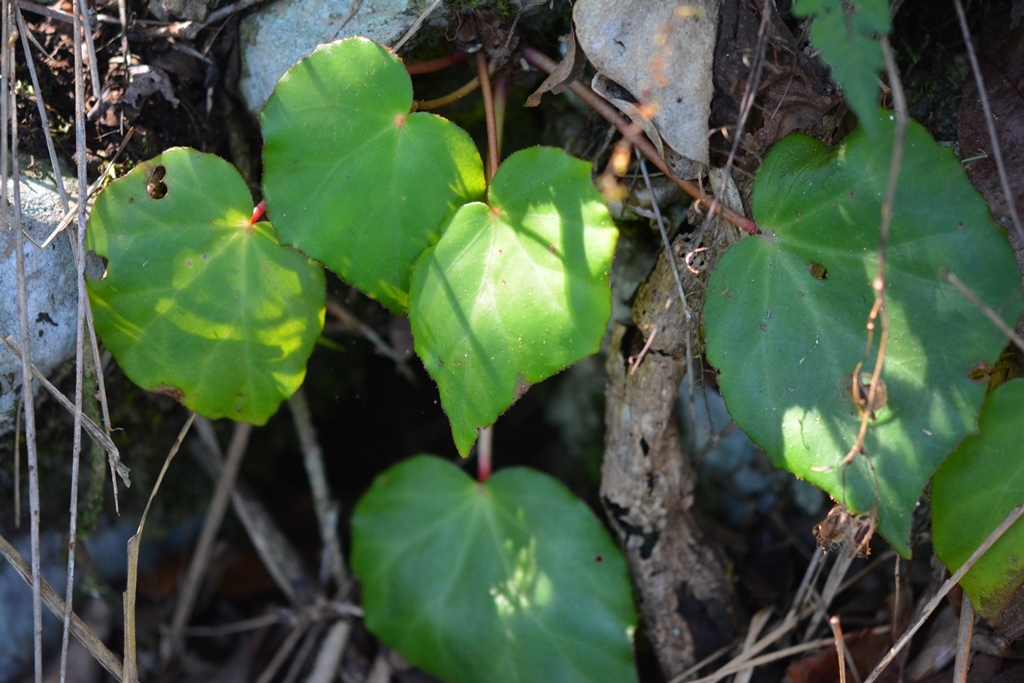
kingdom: Plantae
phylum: Tracheophyta
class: Magnoliopsida
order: Cucurbitales
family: Begoniaceae
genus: Begonia
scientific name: Begonia pinetorum
